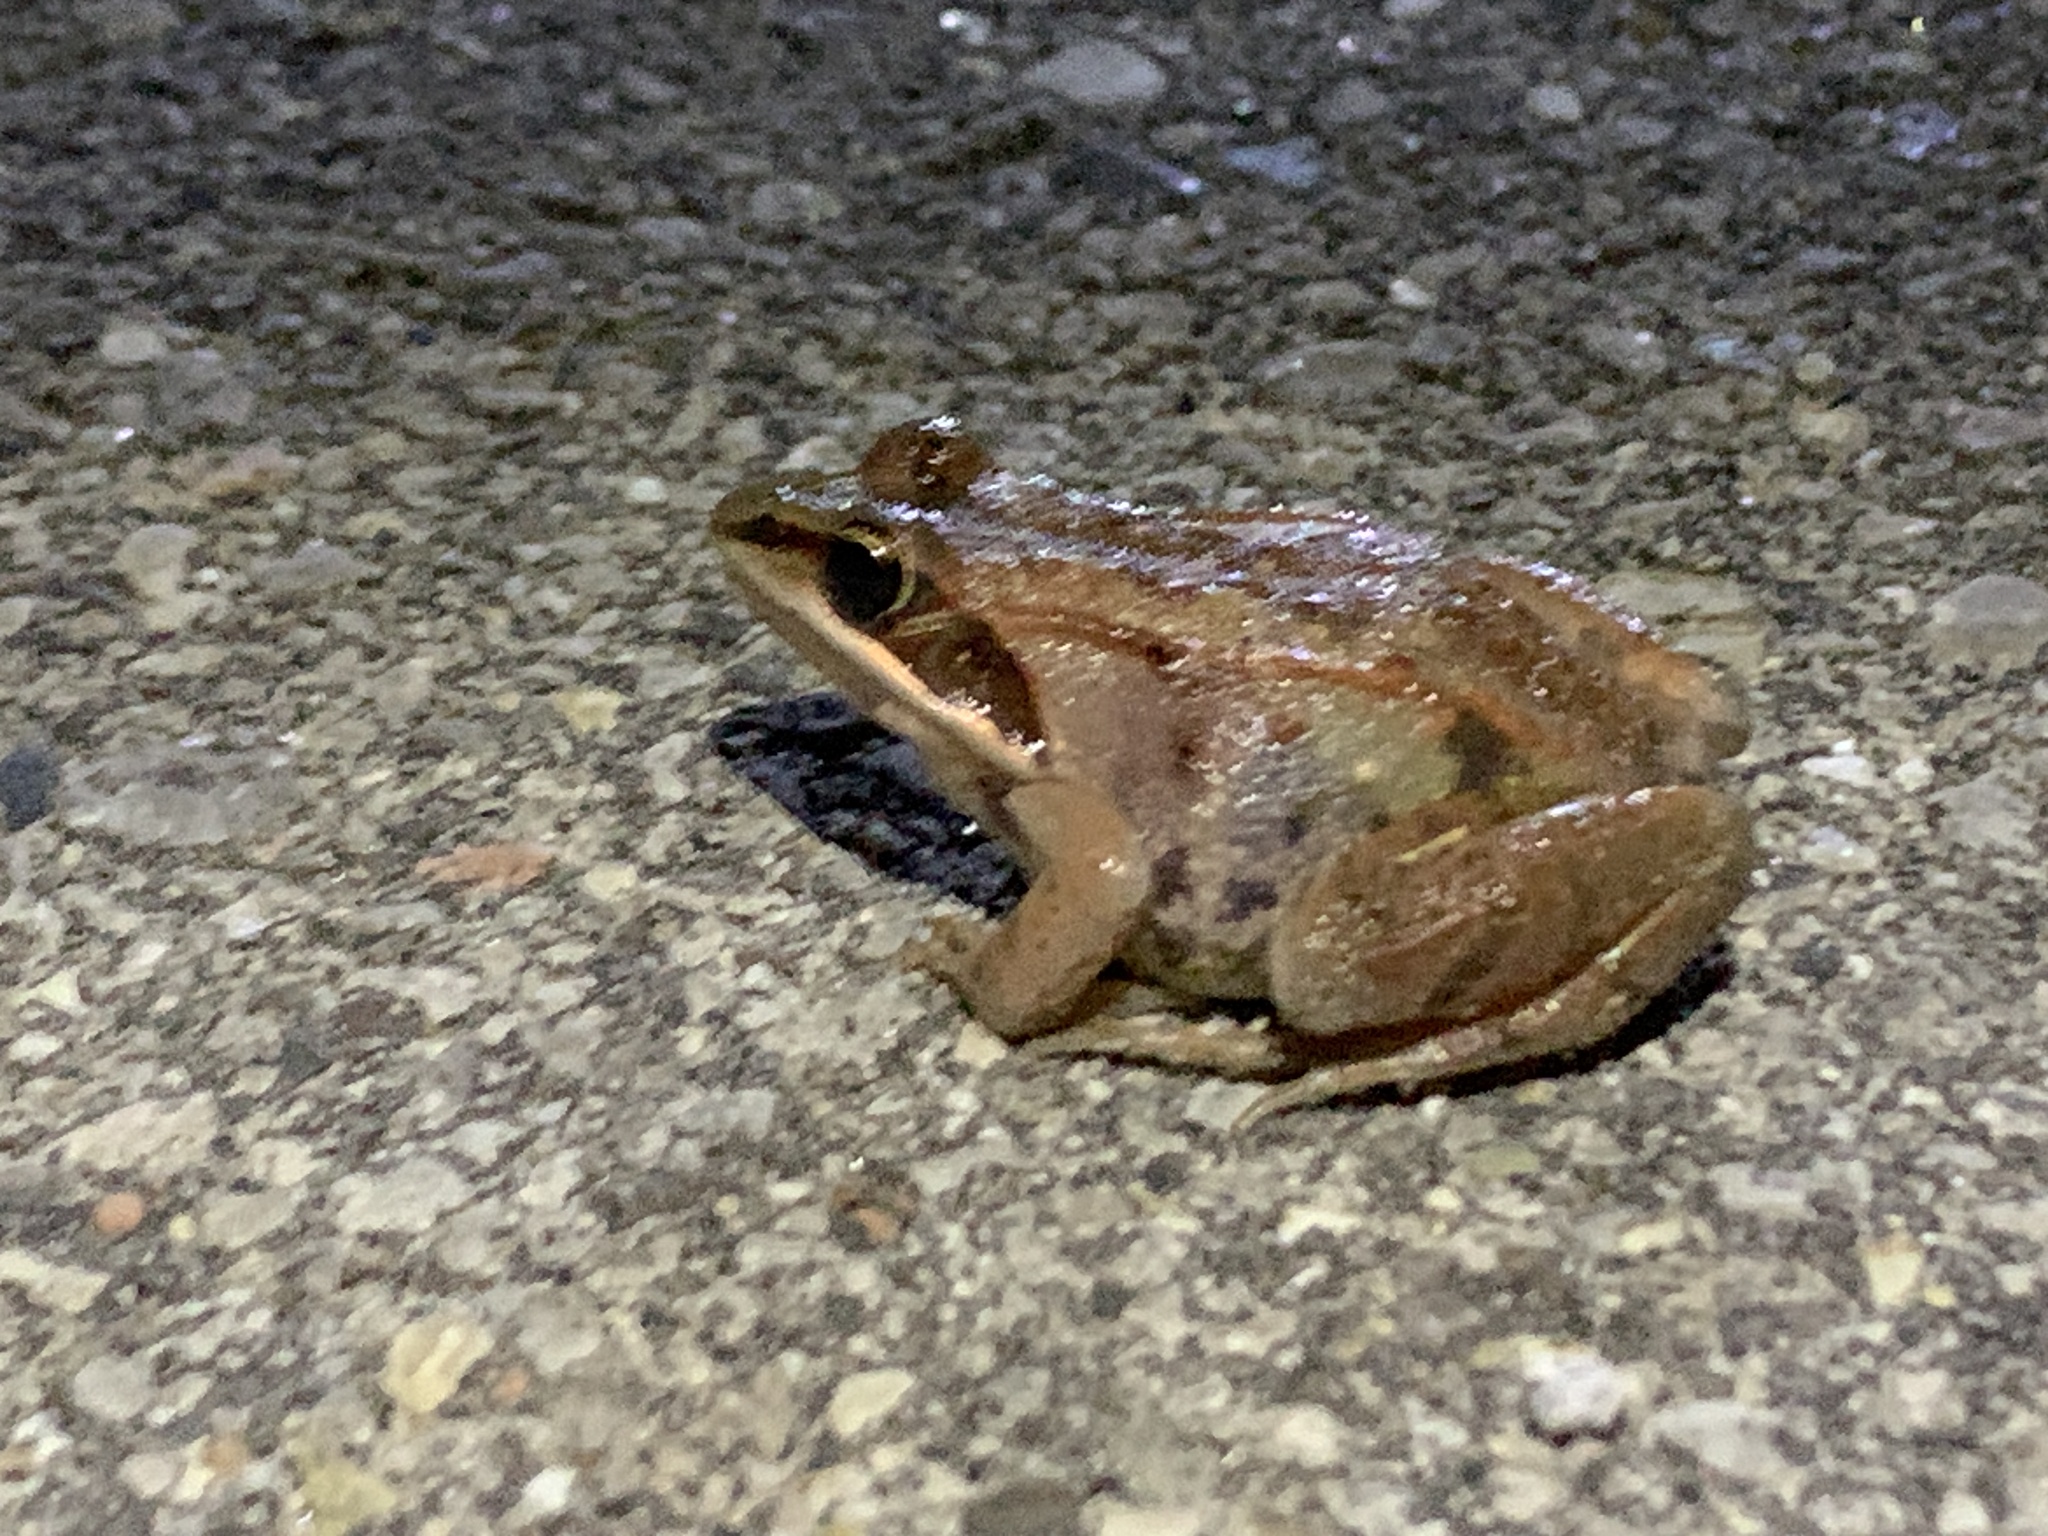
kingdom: Animalia
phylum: Chordata
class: Amphibia
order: Anura
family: Ranidae
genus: Lithobates
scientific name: Lithobates sylvaticus
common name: Wood frog
